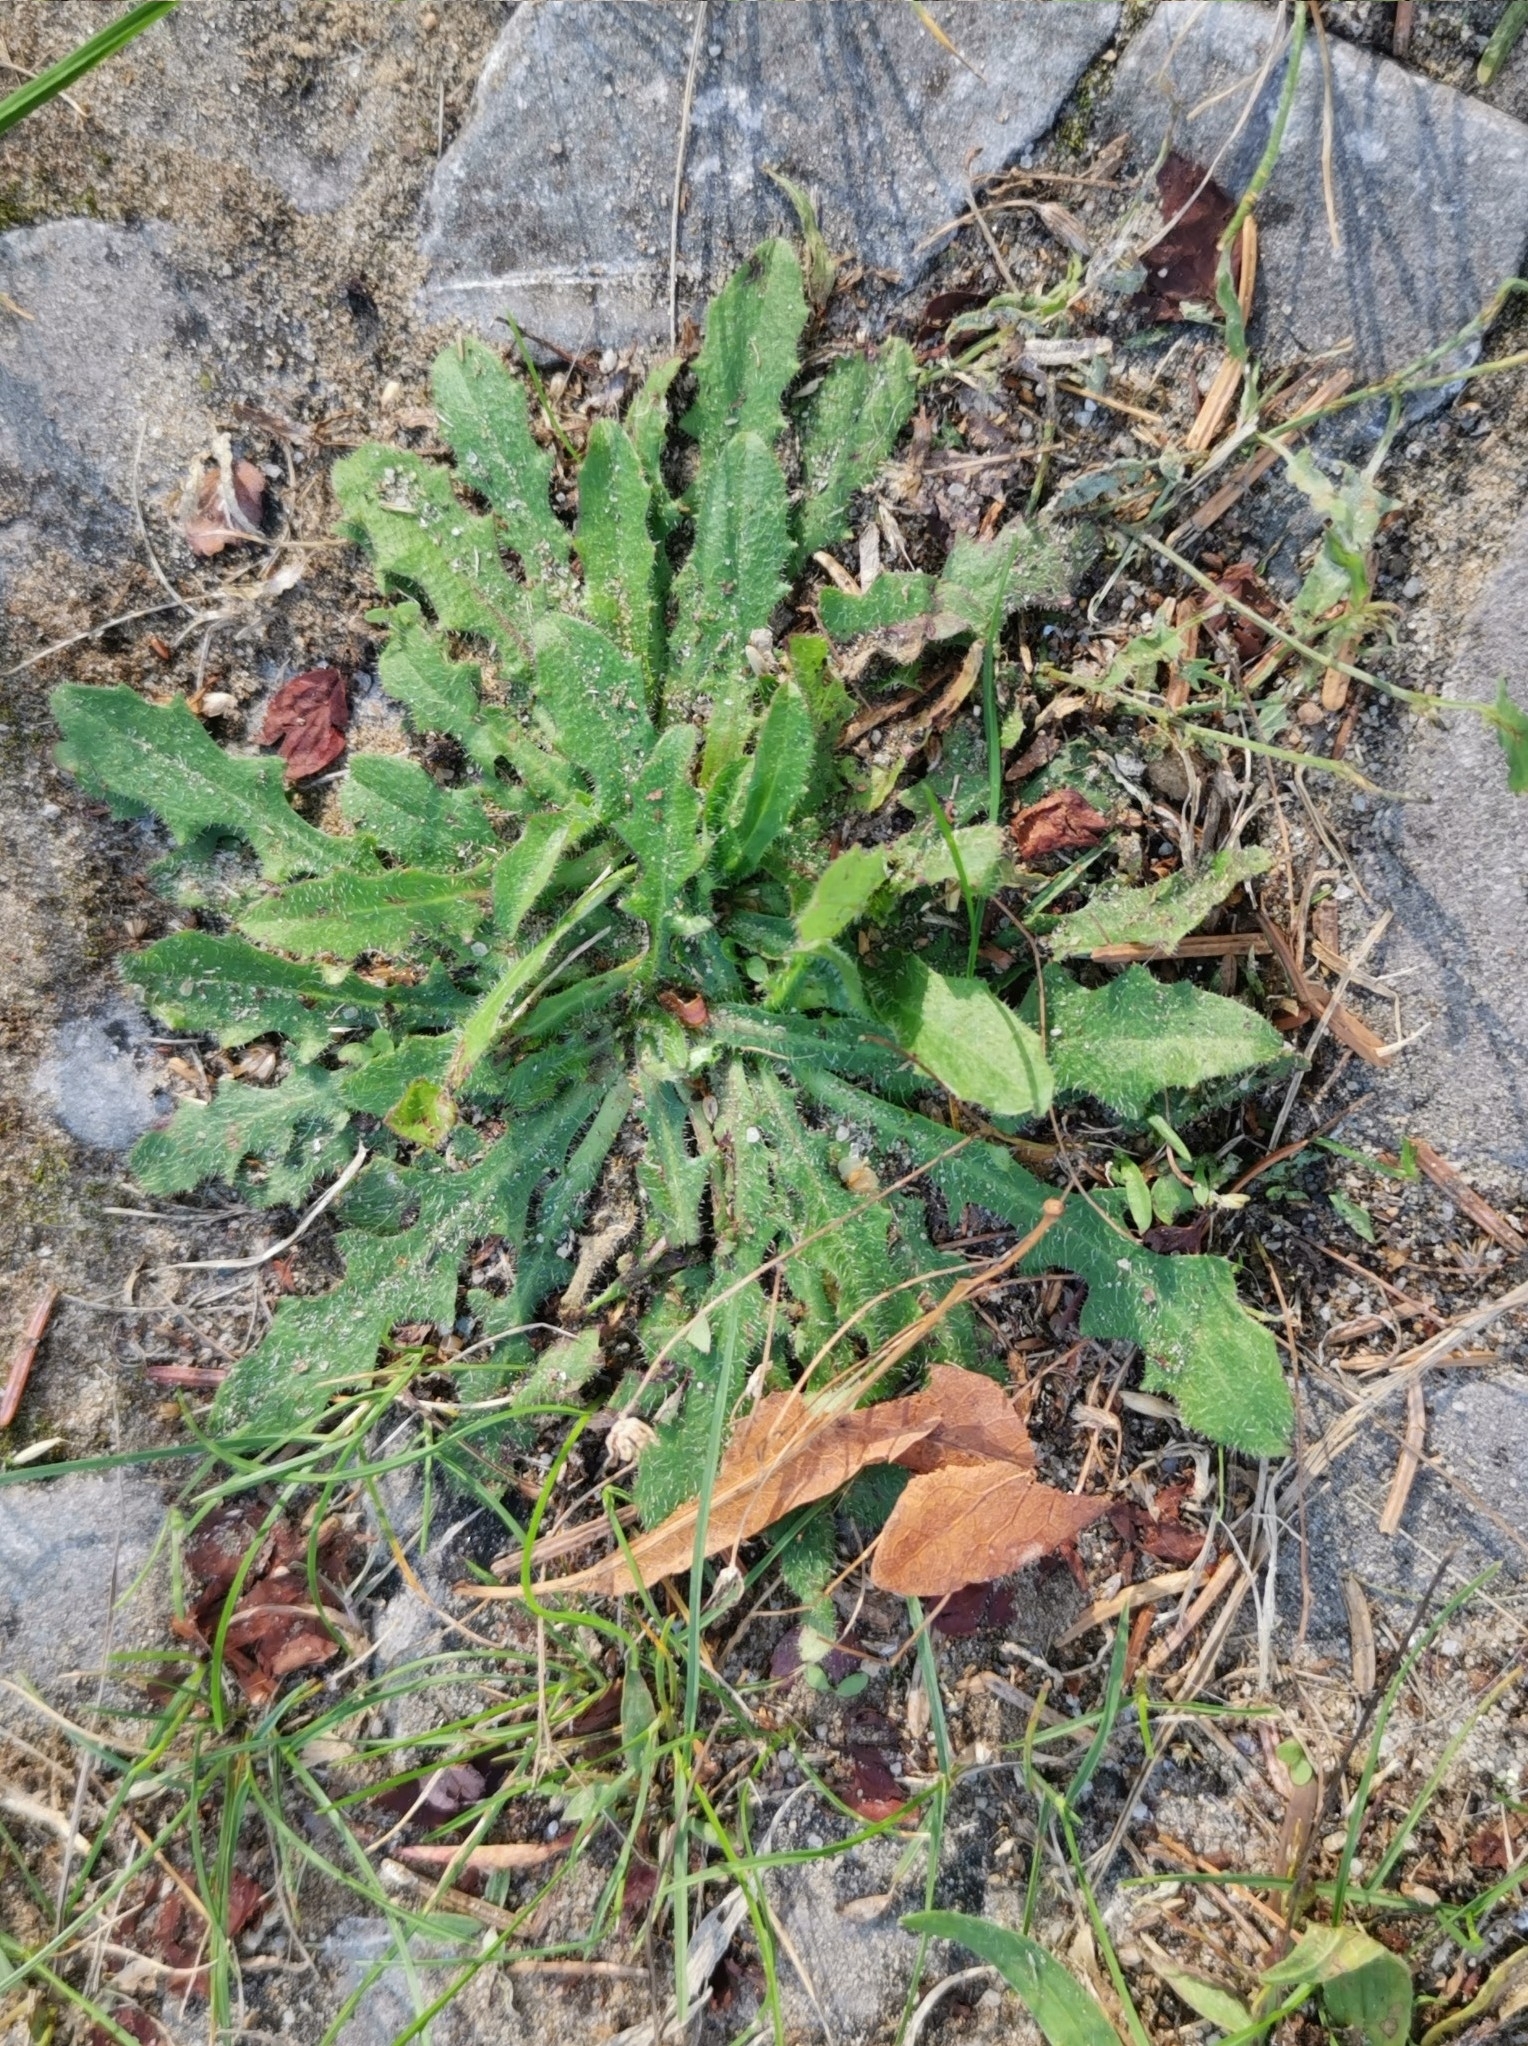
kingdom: Plantae
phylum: Tracheophyta
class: Magnoliopsida
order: Asterales
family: Asteraceae
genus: Hypochaeris
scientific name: Hypochaeris radicata
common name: Flatweed
